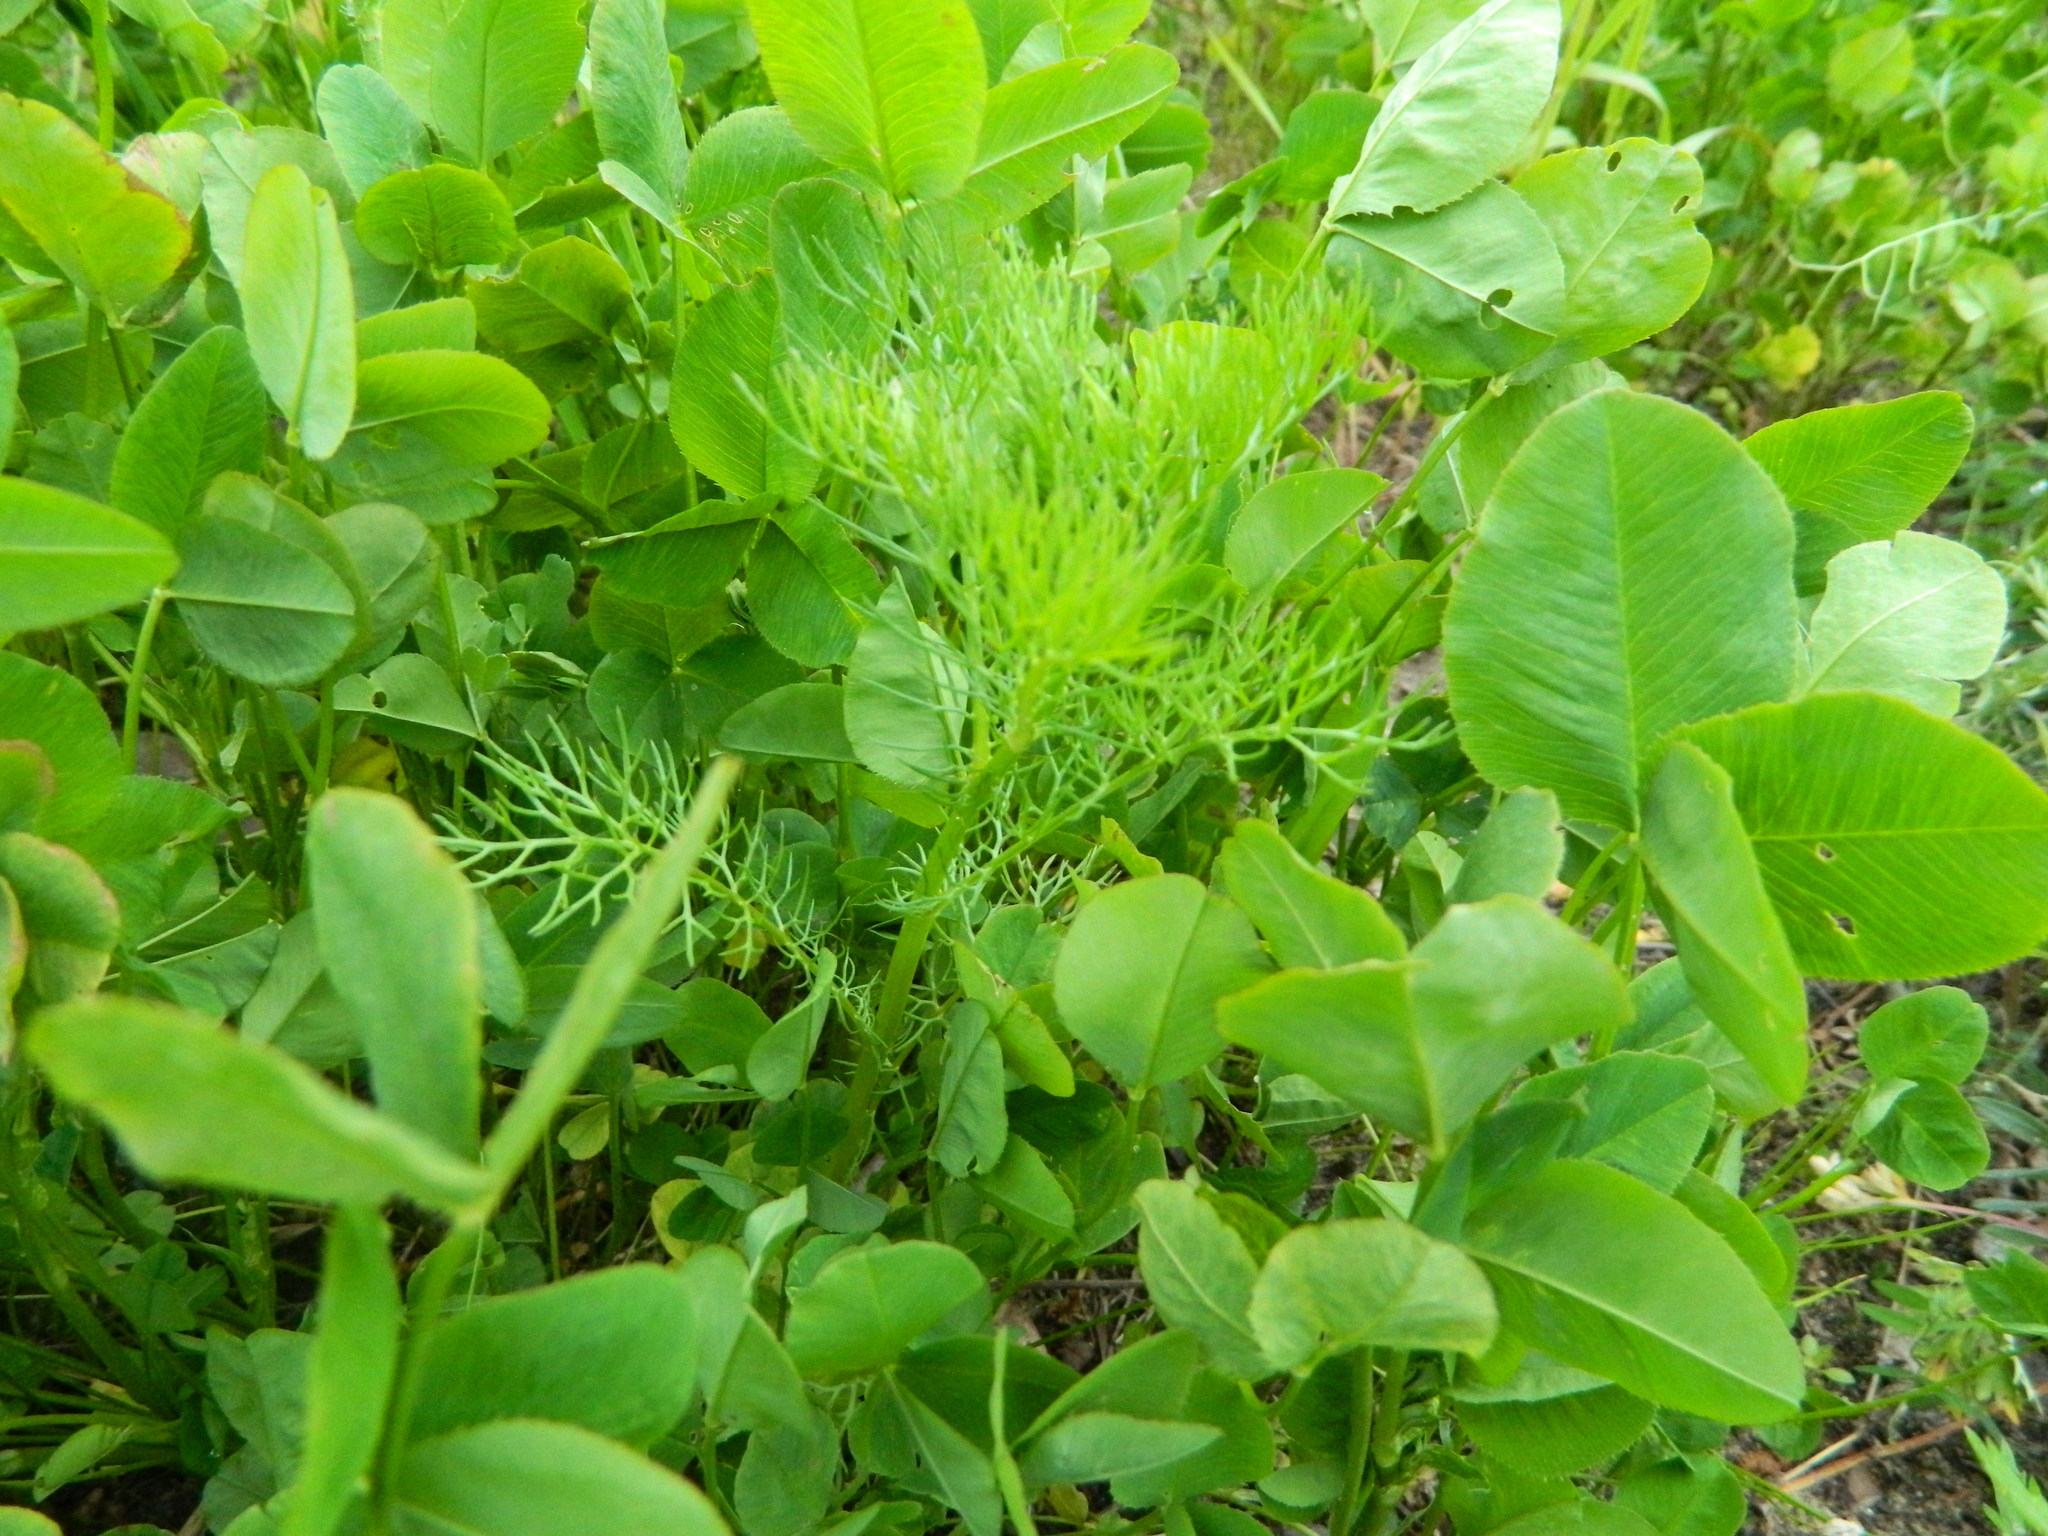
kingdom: Plantae
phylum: Tracheophyta
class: Magnoliopsida
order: Asterales
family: Asteraceae
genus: Tripleurospermum
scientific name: Tripleurospermum inodorum
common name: Scentless mayweed
